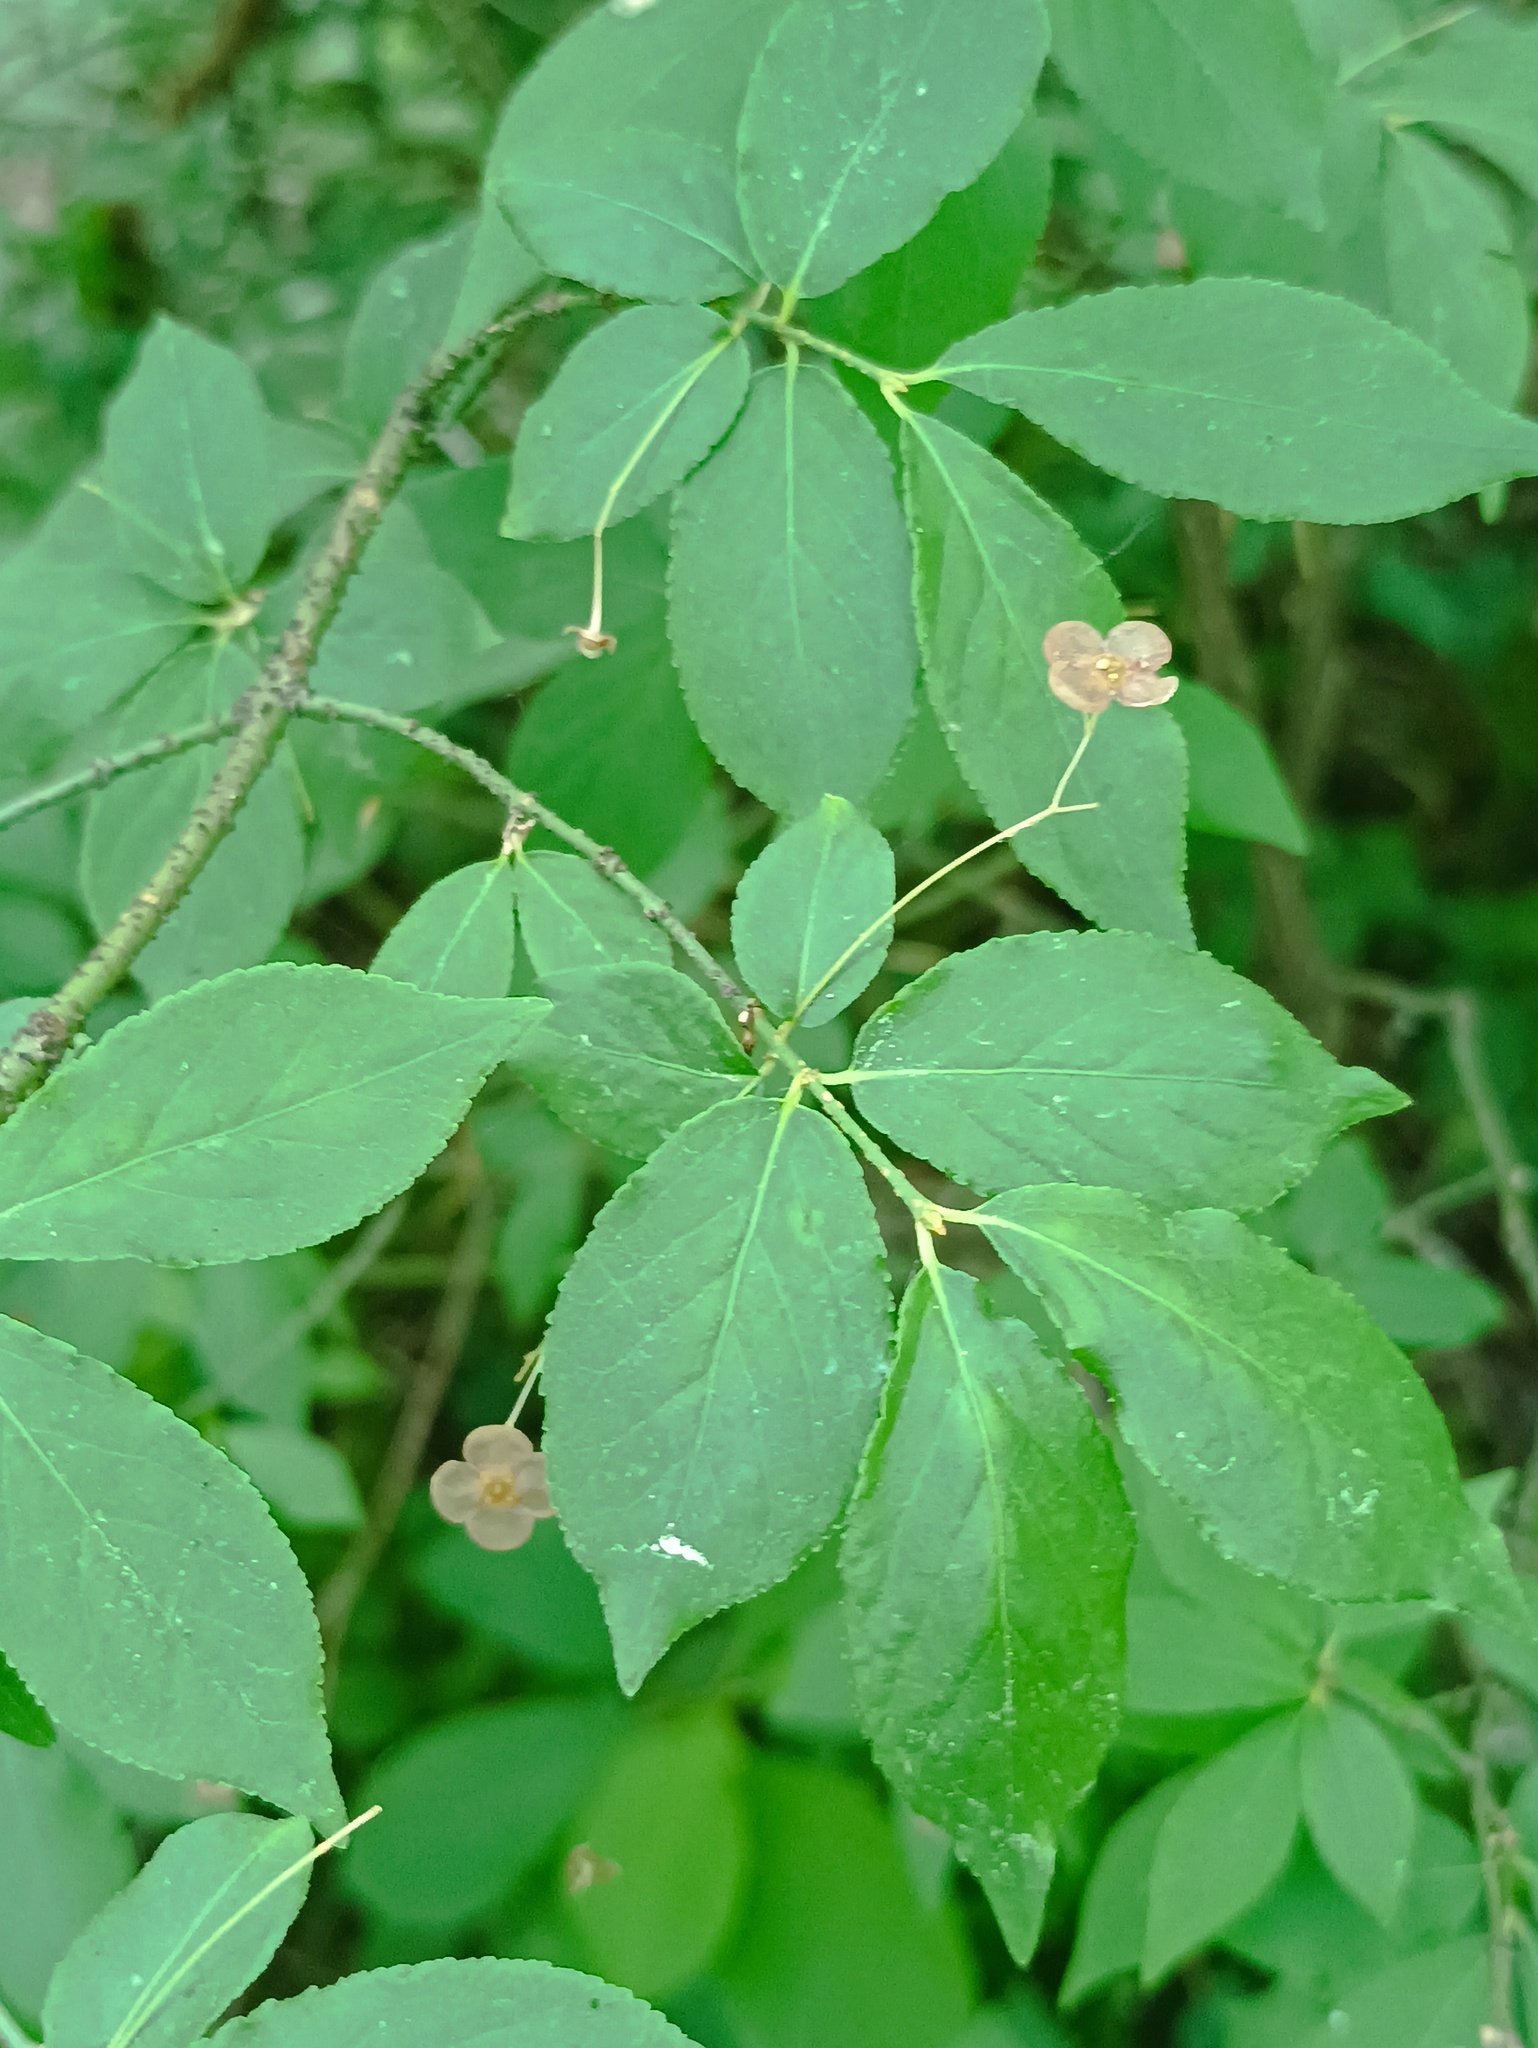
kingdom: Plantae
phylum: Tracheophyta
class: Magnoliopsida
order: Celastrales
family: Celastraceae
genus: Euonymus
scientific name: Euonymus verrucosus
